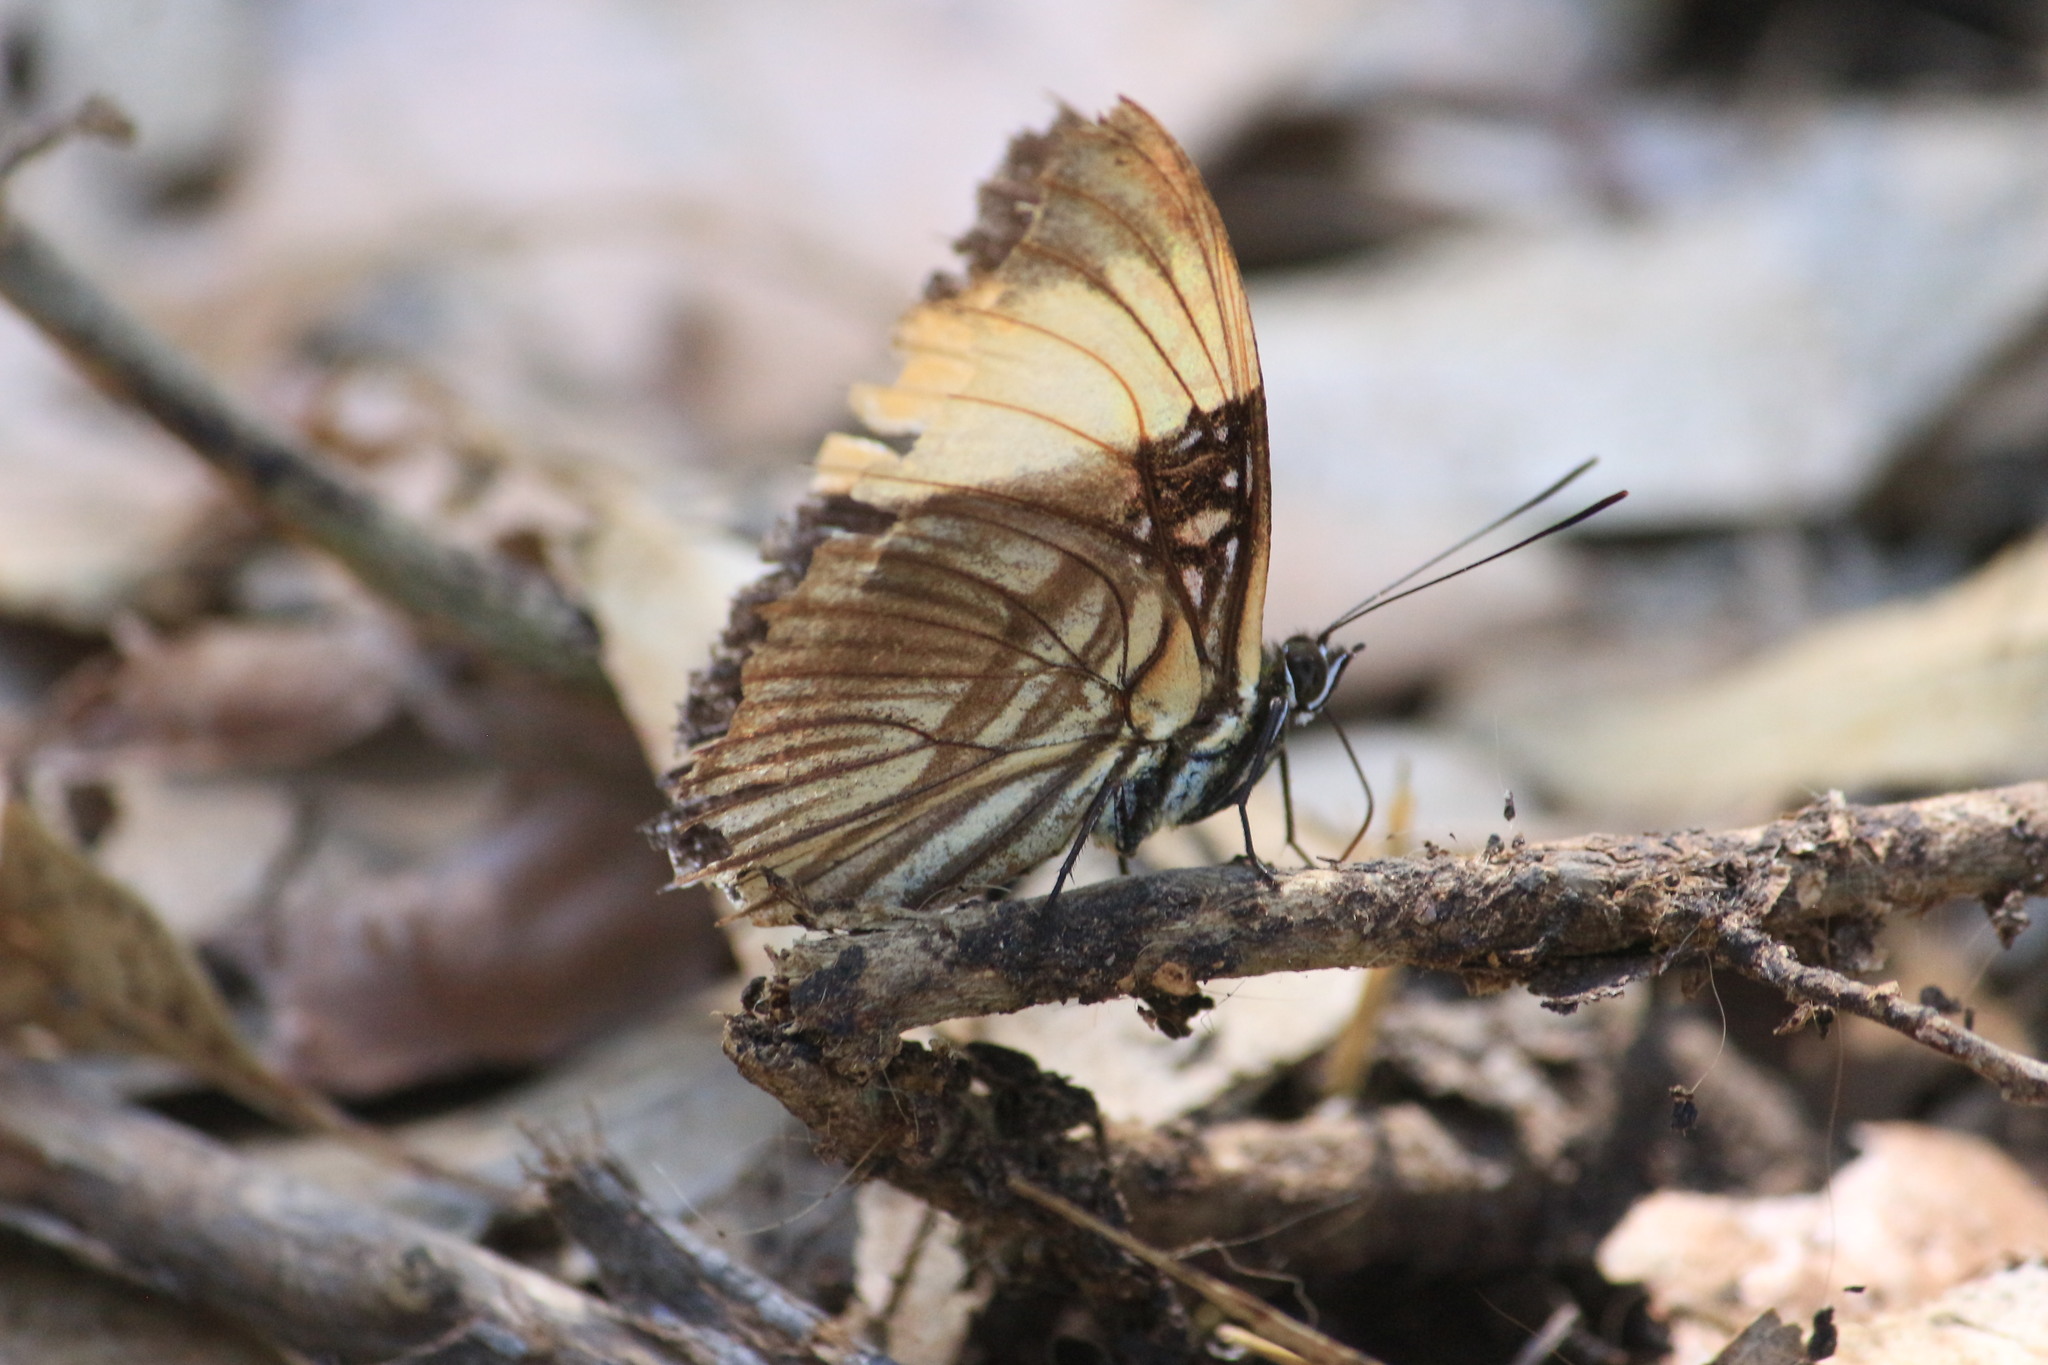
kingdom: Animalia
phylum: Arthropoda
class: Insecta
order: Lepidoptera
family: Nymphalidae
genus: Limenitis
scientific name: Limenitis melanthe
